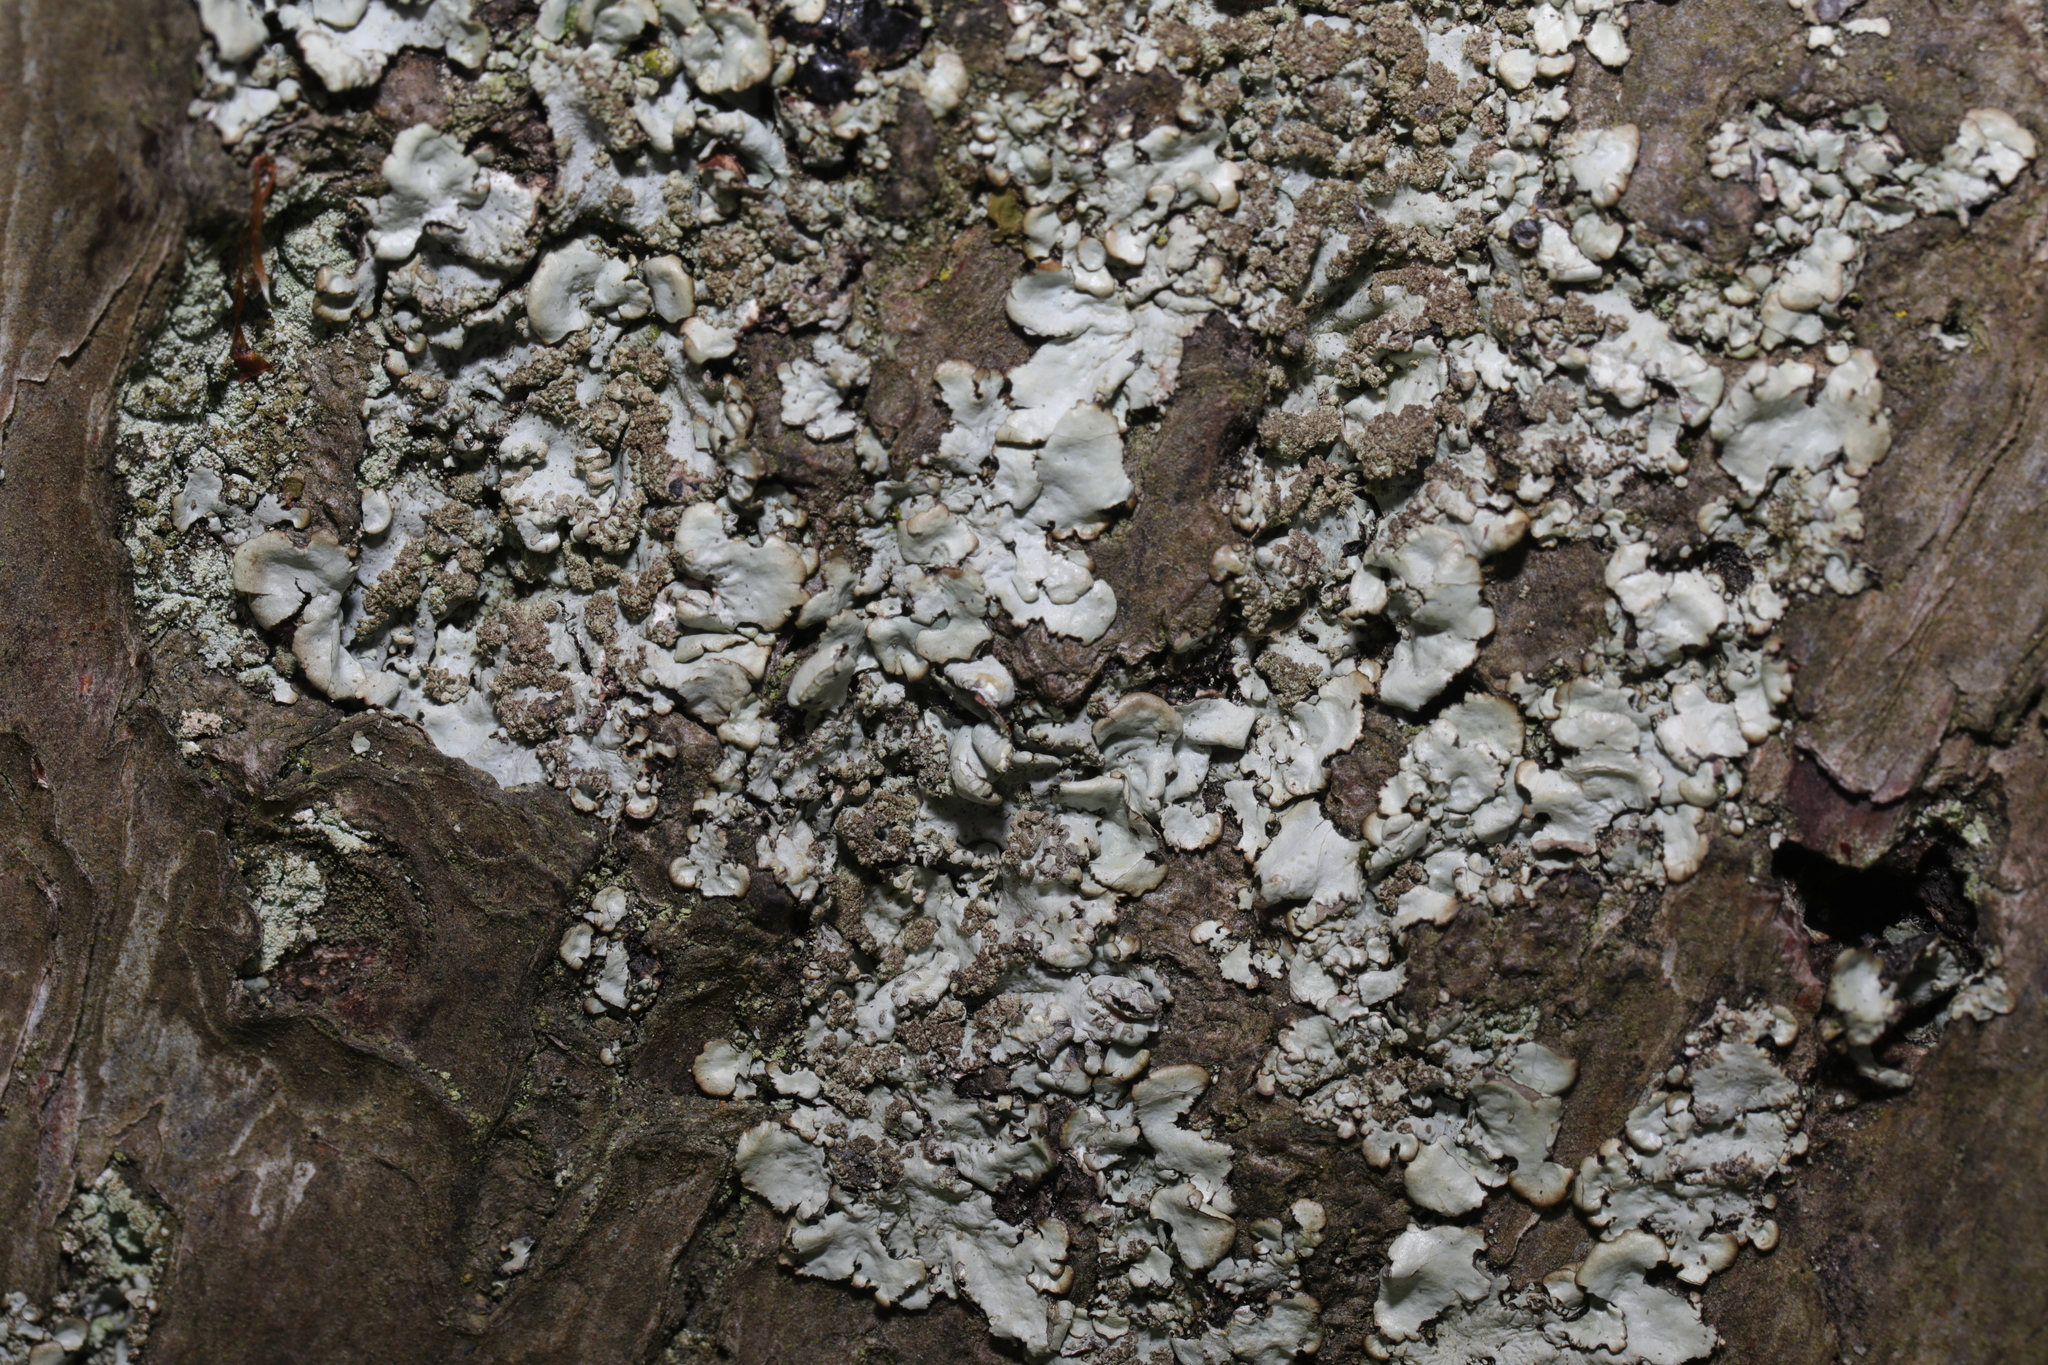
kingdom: Fungi
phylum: Ascomycota
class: Lecanoromycetes
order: Lecanorales
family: Parmeliaceae
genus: Hypotrachyna
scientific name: Hypotrachyna afrorevoluta
